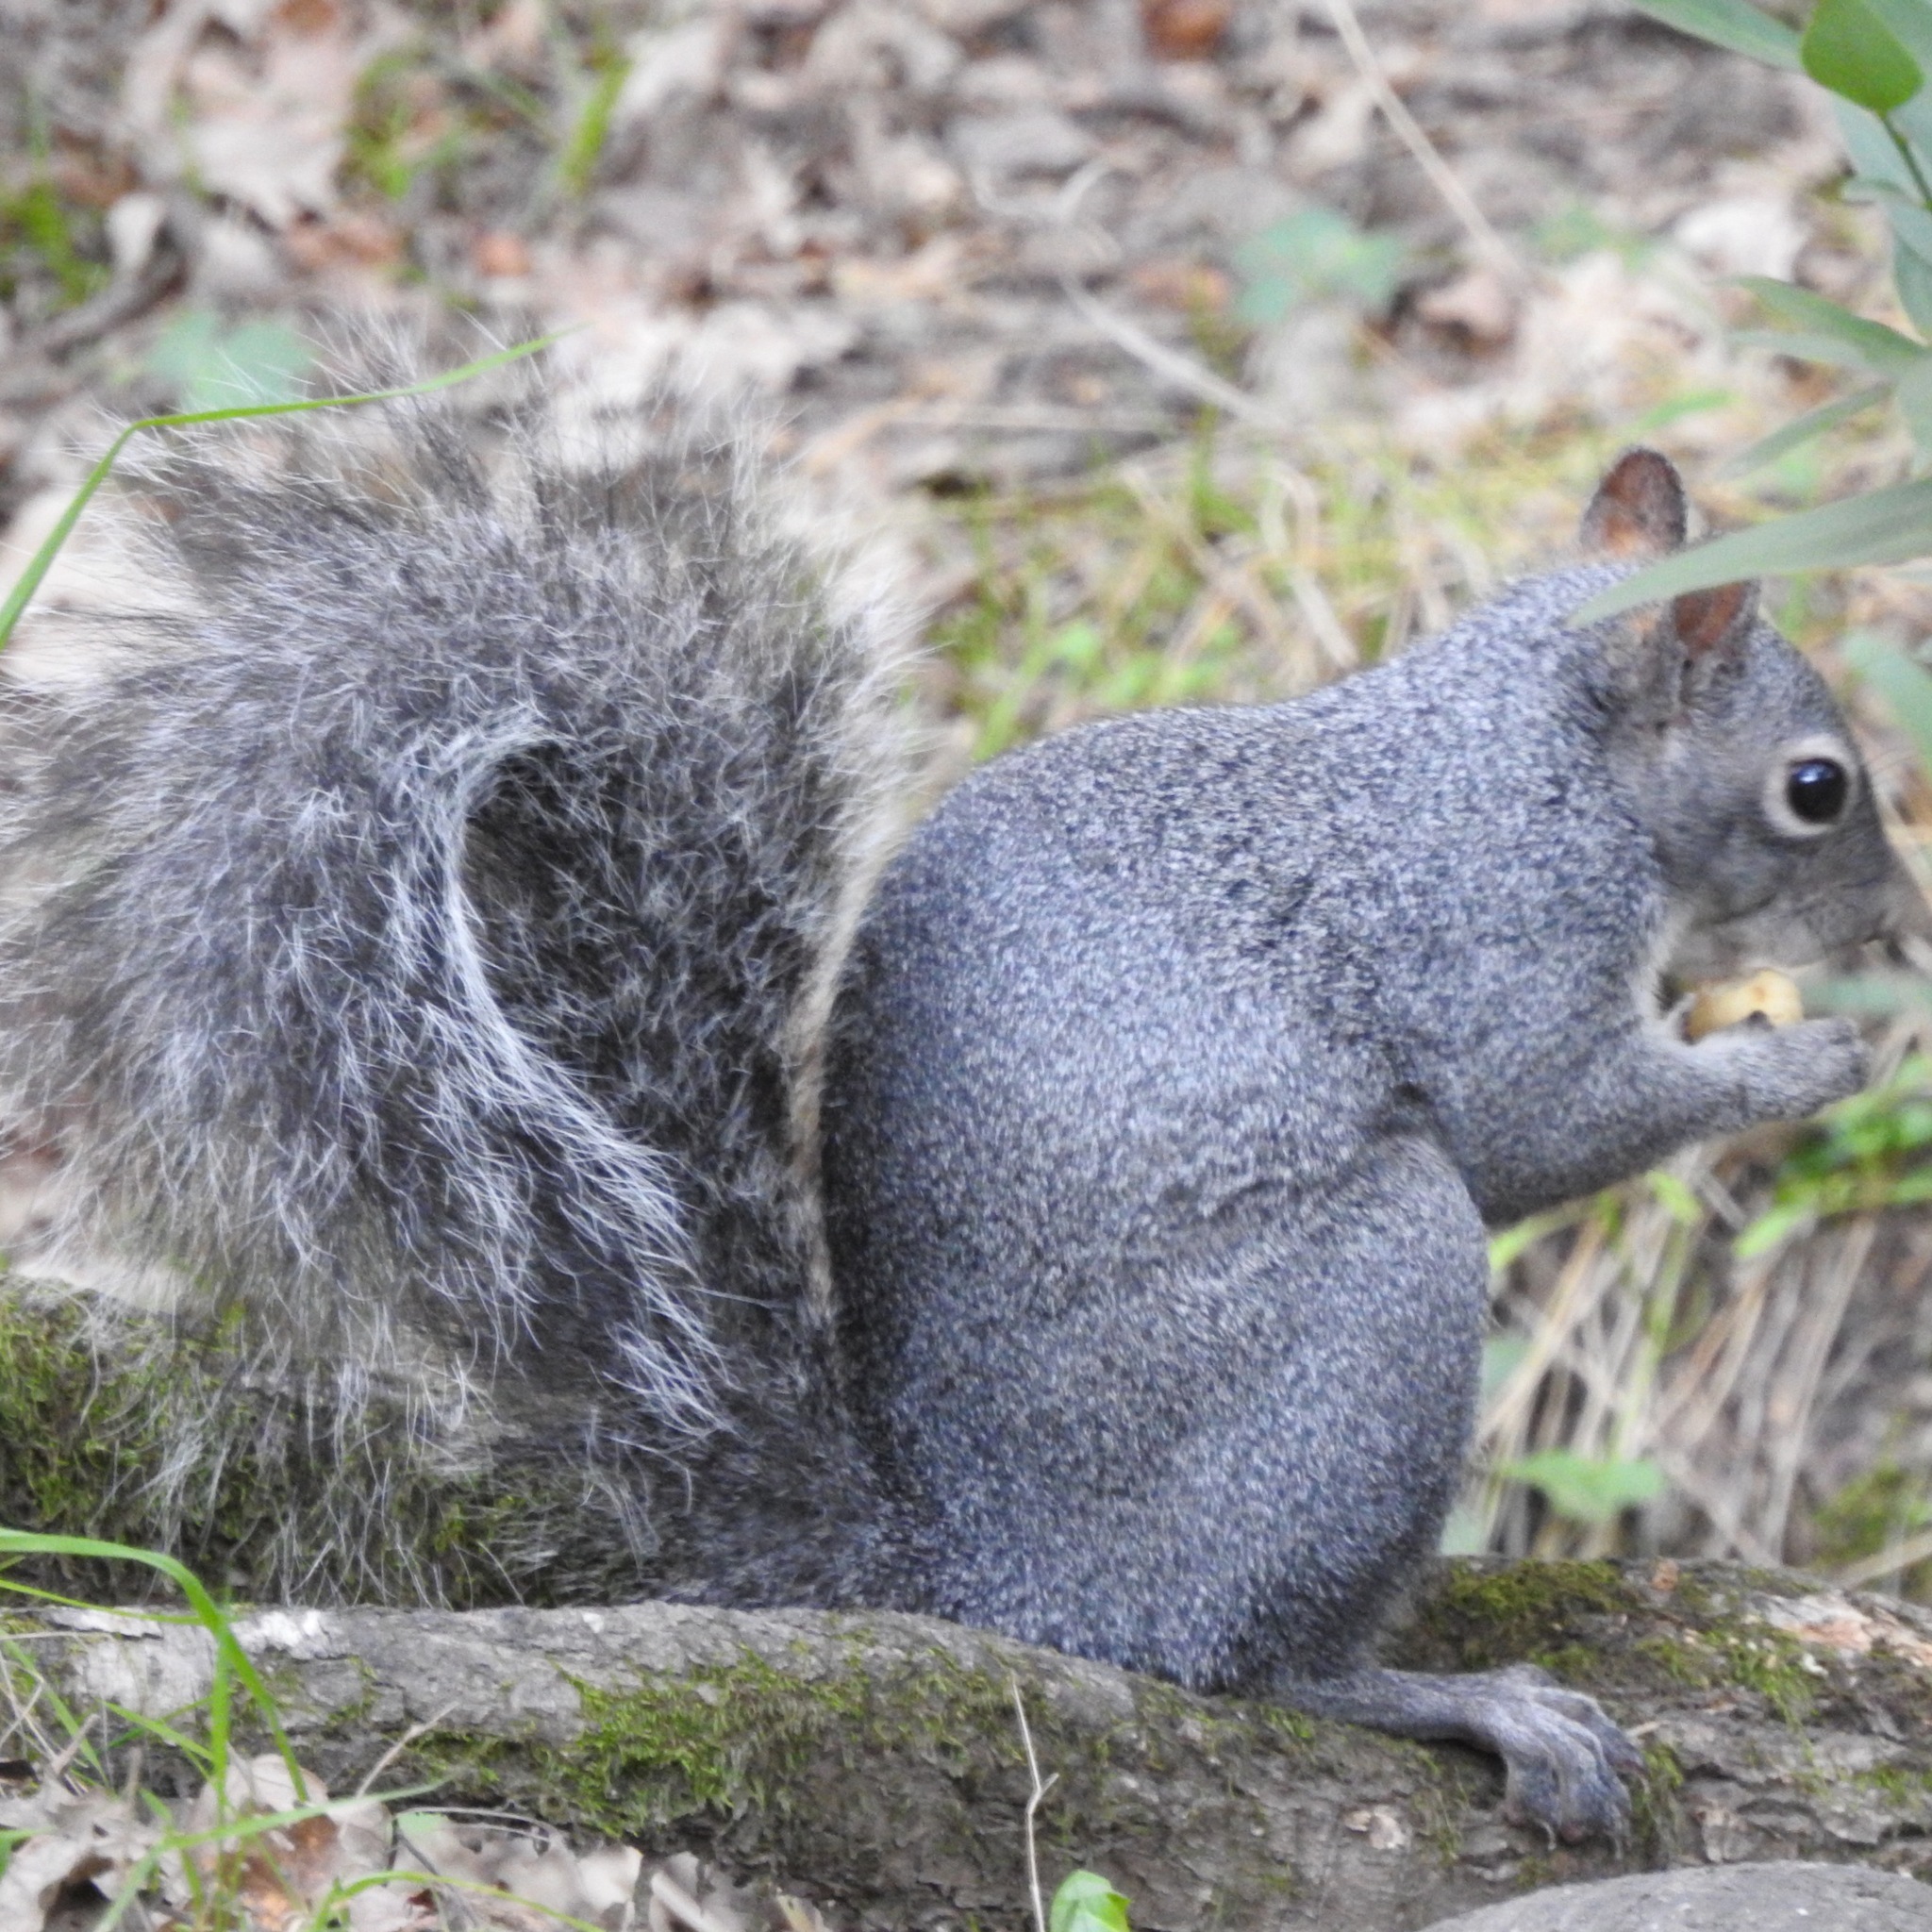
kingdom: Animalia
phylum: Chordata
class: Mammalia
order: Rodentia
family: Sciuridae
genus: Sciurus
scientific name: Sciurus griseus
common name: Western gray squirrel
